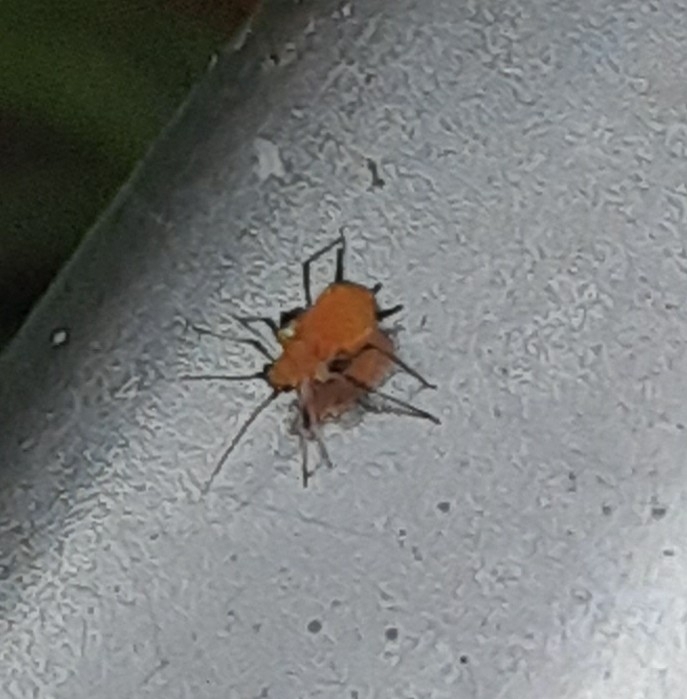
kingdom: Animalia
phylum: Arthropoda
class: Insecta
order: Hemiptera
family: Aphididae
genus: Aphis
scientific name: Aphis nerii
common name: Oleander aphid
